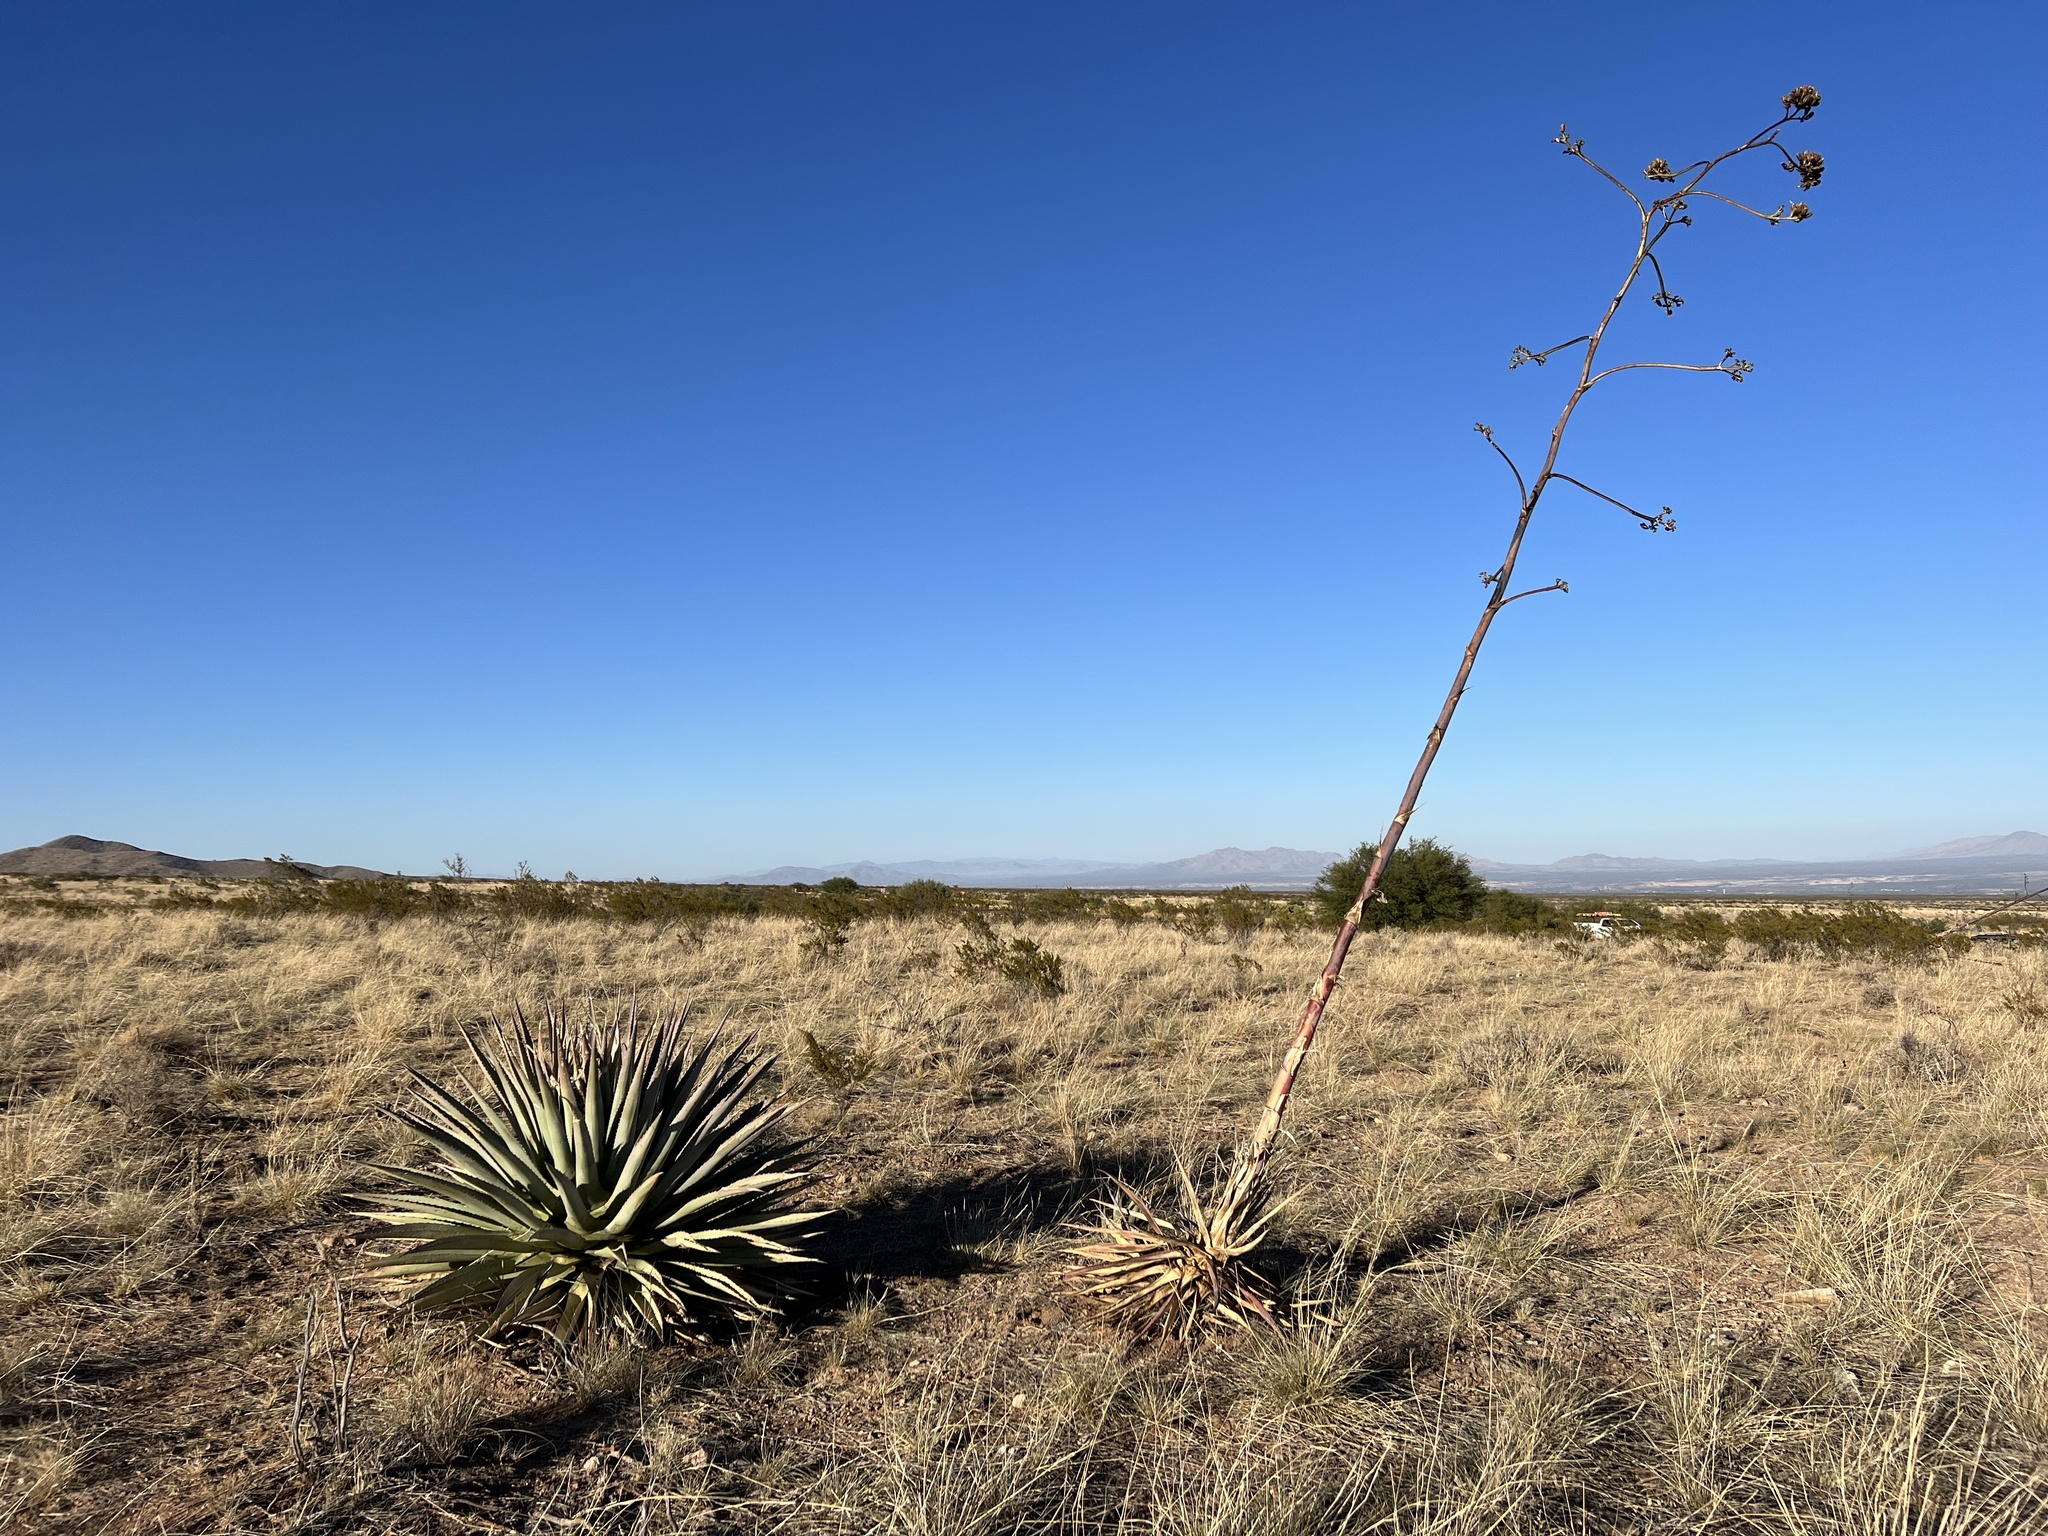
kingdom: Plantae
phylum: Tracheophyta
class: Liliopsida
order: Asparagales
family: Asparagaceae
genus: Agave
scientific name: Agave palmeri
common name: Palmer agave
